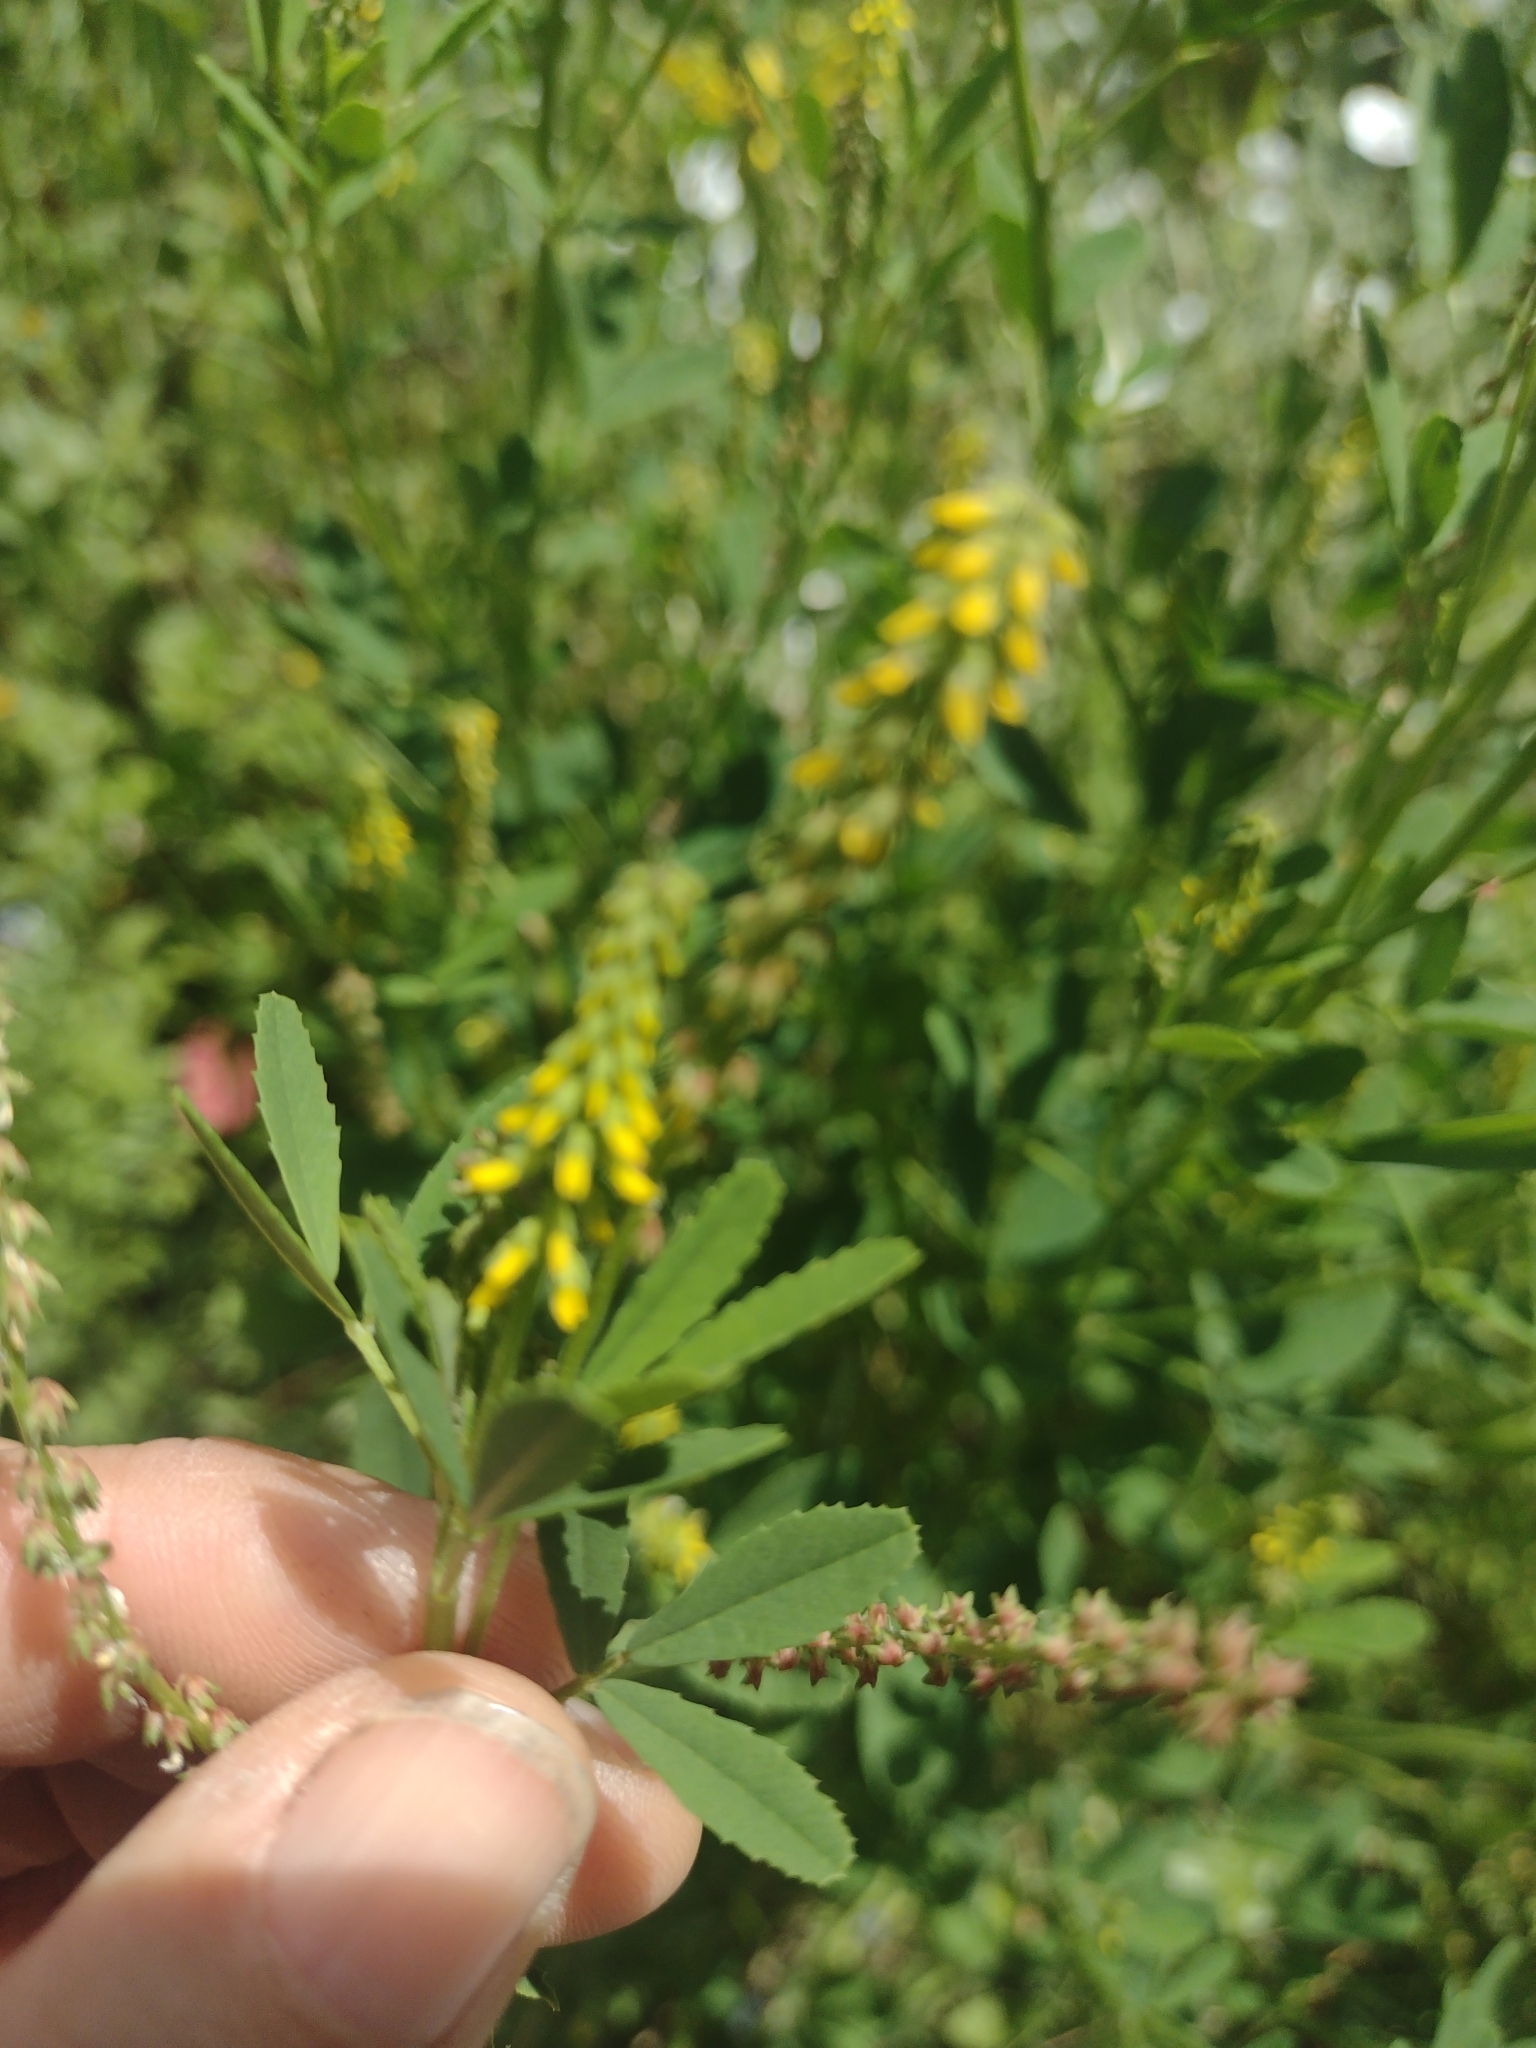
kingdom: Plantae
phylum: Tracheophyta
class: Magnoliopsida
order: Fabales
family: Fabaceae
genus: Melilotus
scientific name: Melilotus indicus
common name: Small melilot
